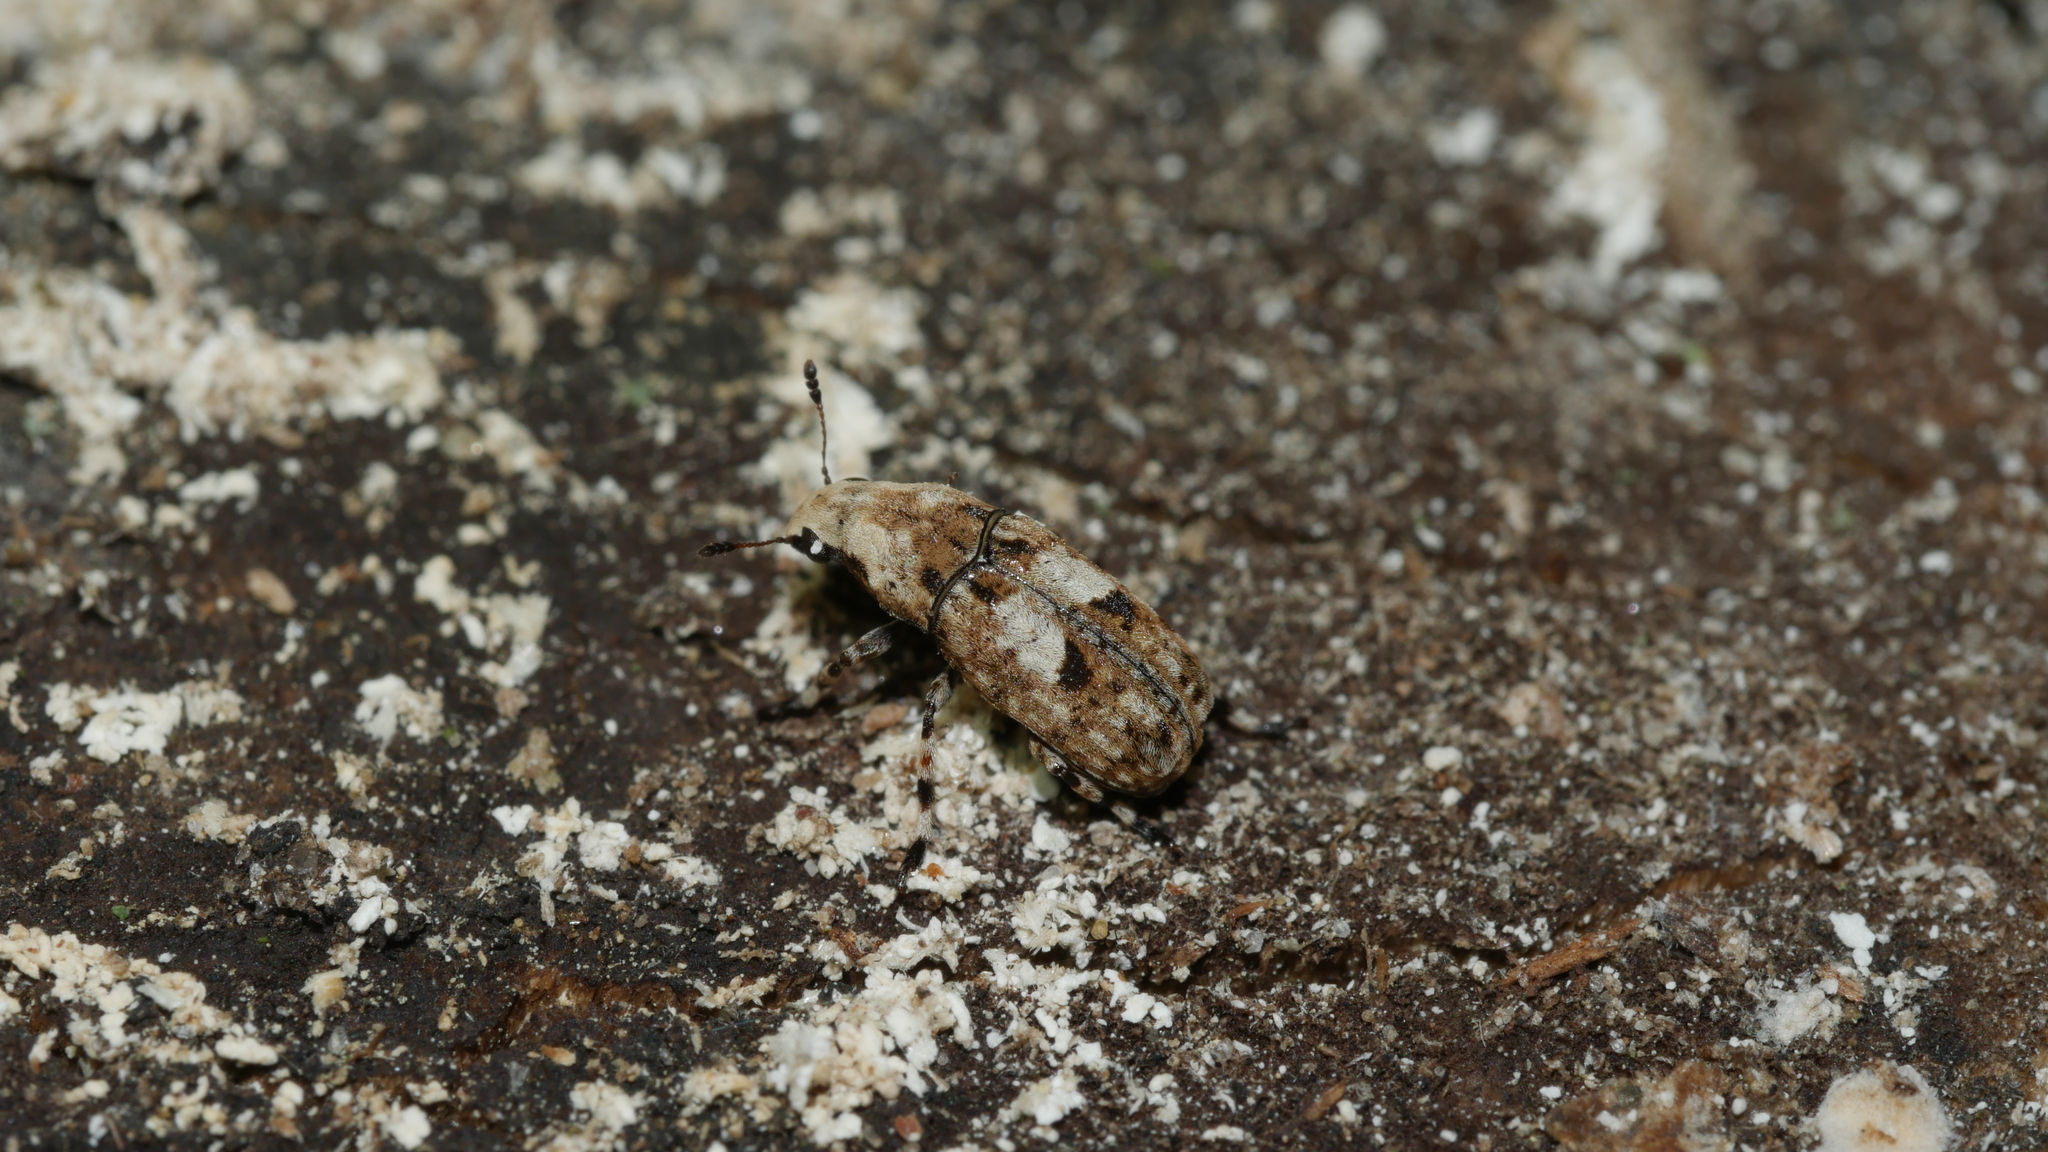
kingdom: Animalia
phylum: Arthropoda
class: Insecta
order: Coleoptera
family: Anthribidae
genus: Euparius
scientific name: Euparius marmoreus
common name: Marbled fungus weevil
